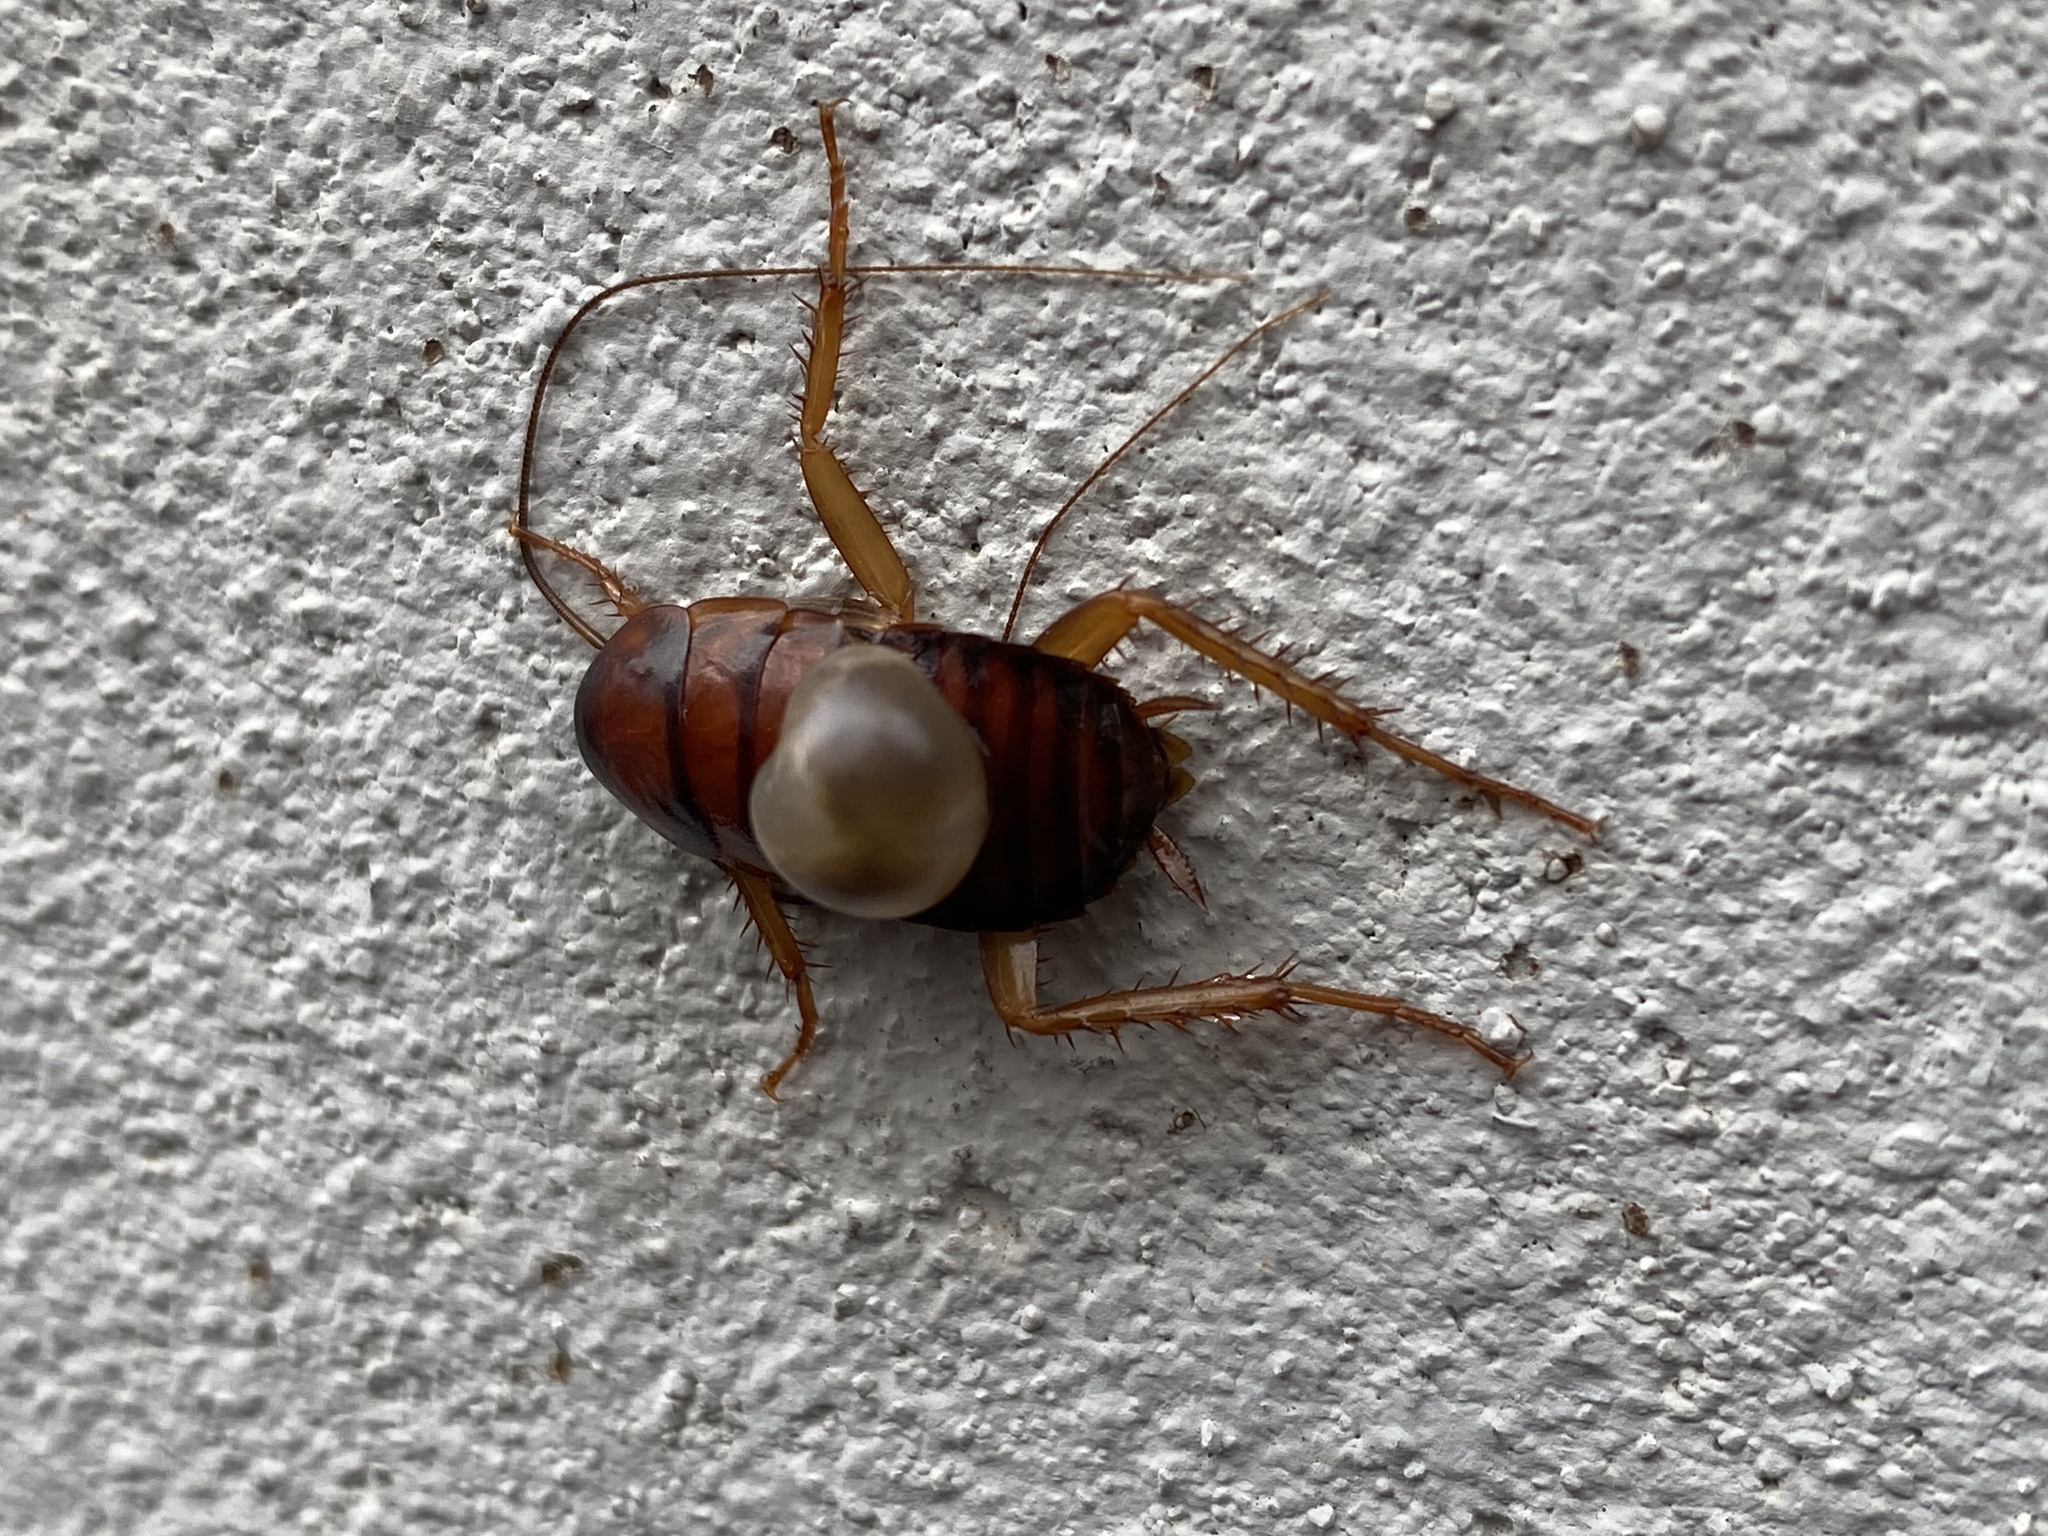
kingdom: Animalia
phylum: Arthropoda
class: Insecta
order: Blattodea
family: Blattidae
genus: Periplaneta
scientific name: Periplaneta americana
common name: American cockroach
